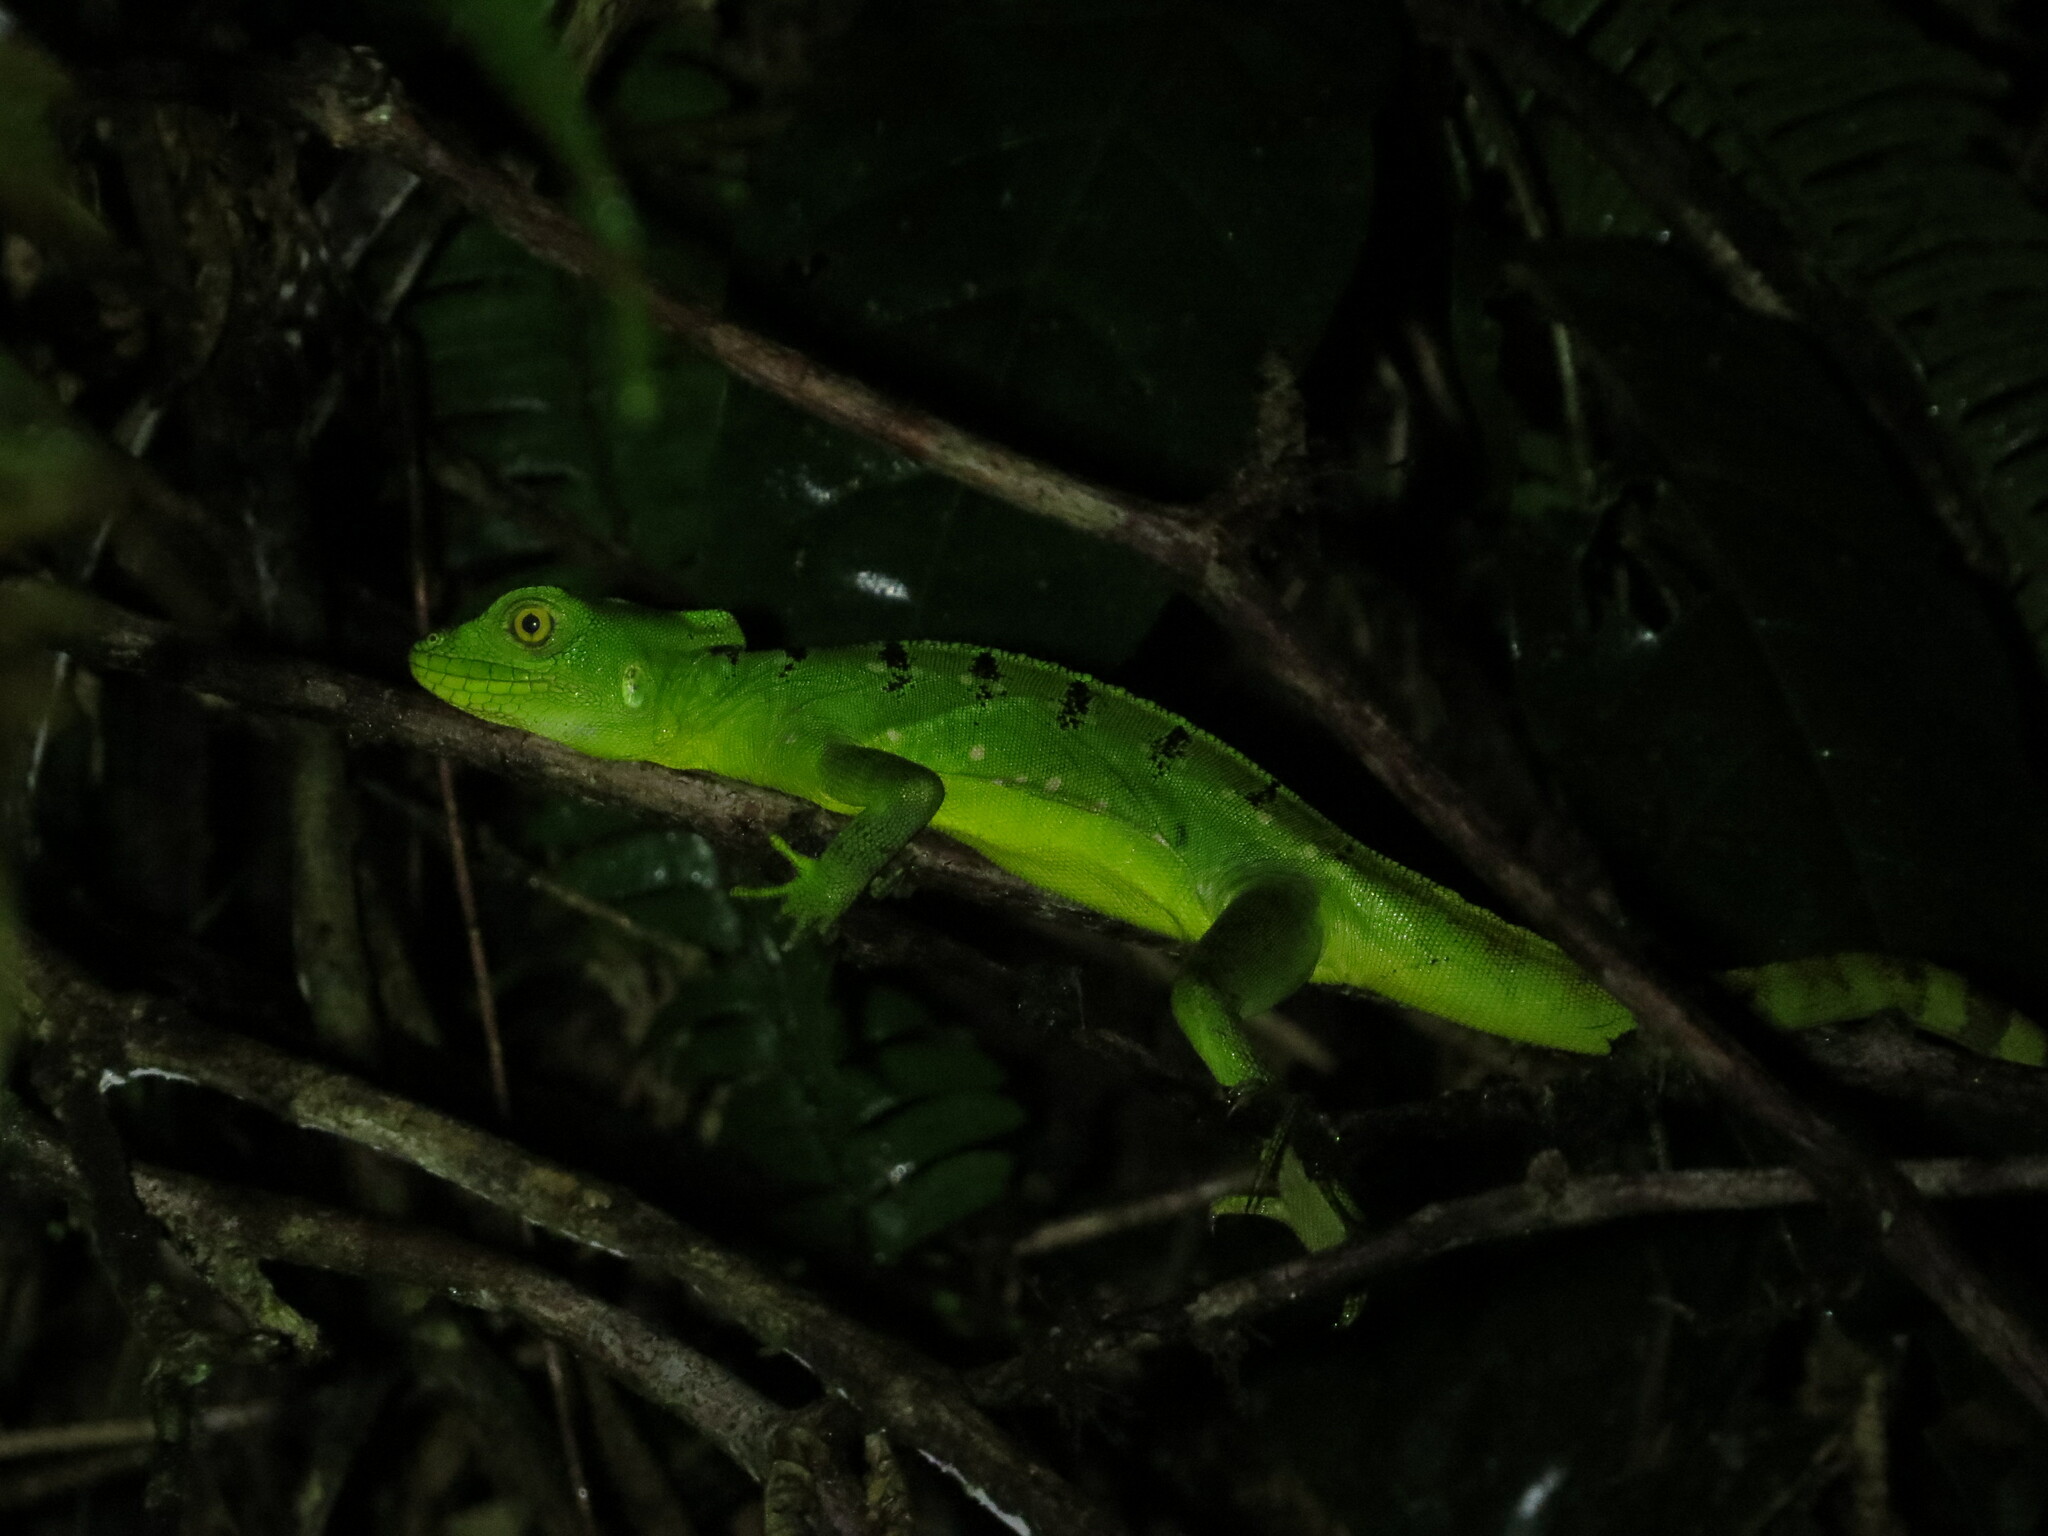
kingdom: Animalia
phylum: Chordata
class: Squamata
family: Corytophanidae
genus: Basiliscus
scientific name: Basiliscus plumifrons
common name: Green basilisk
